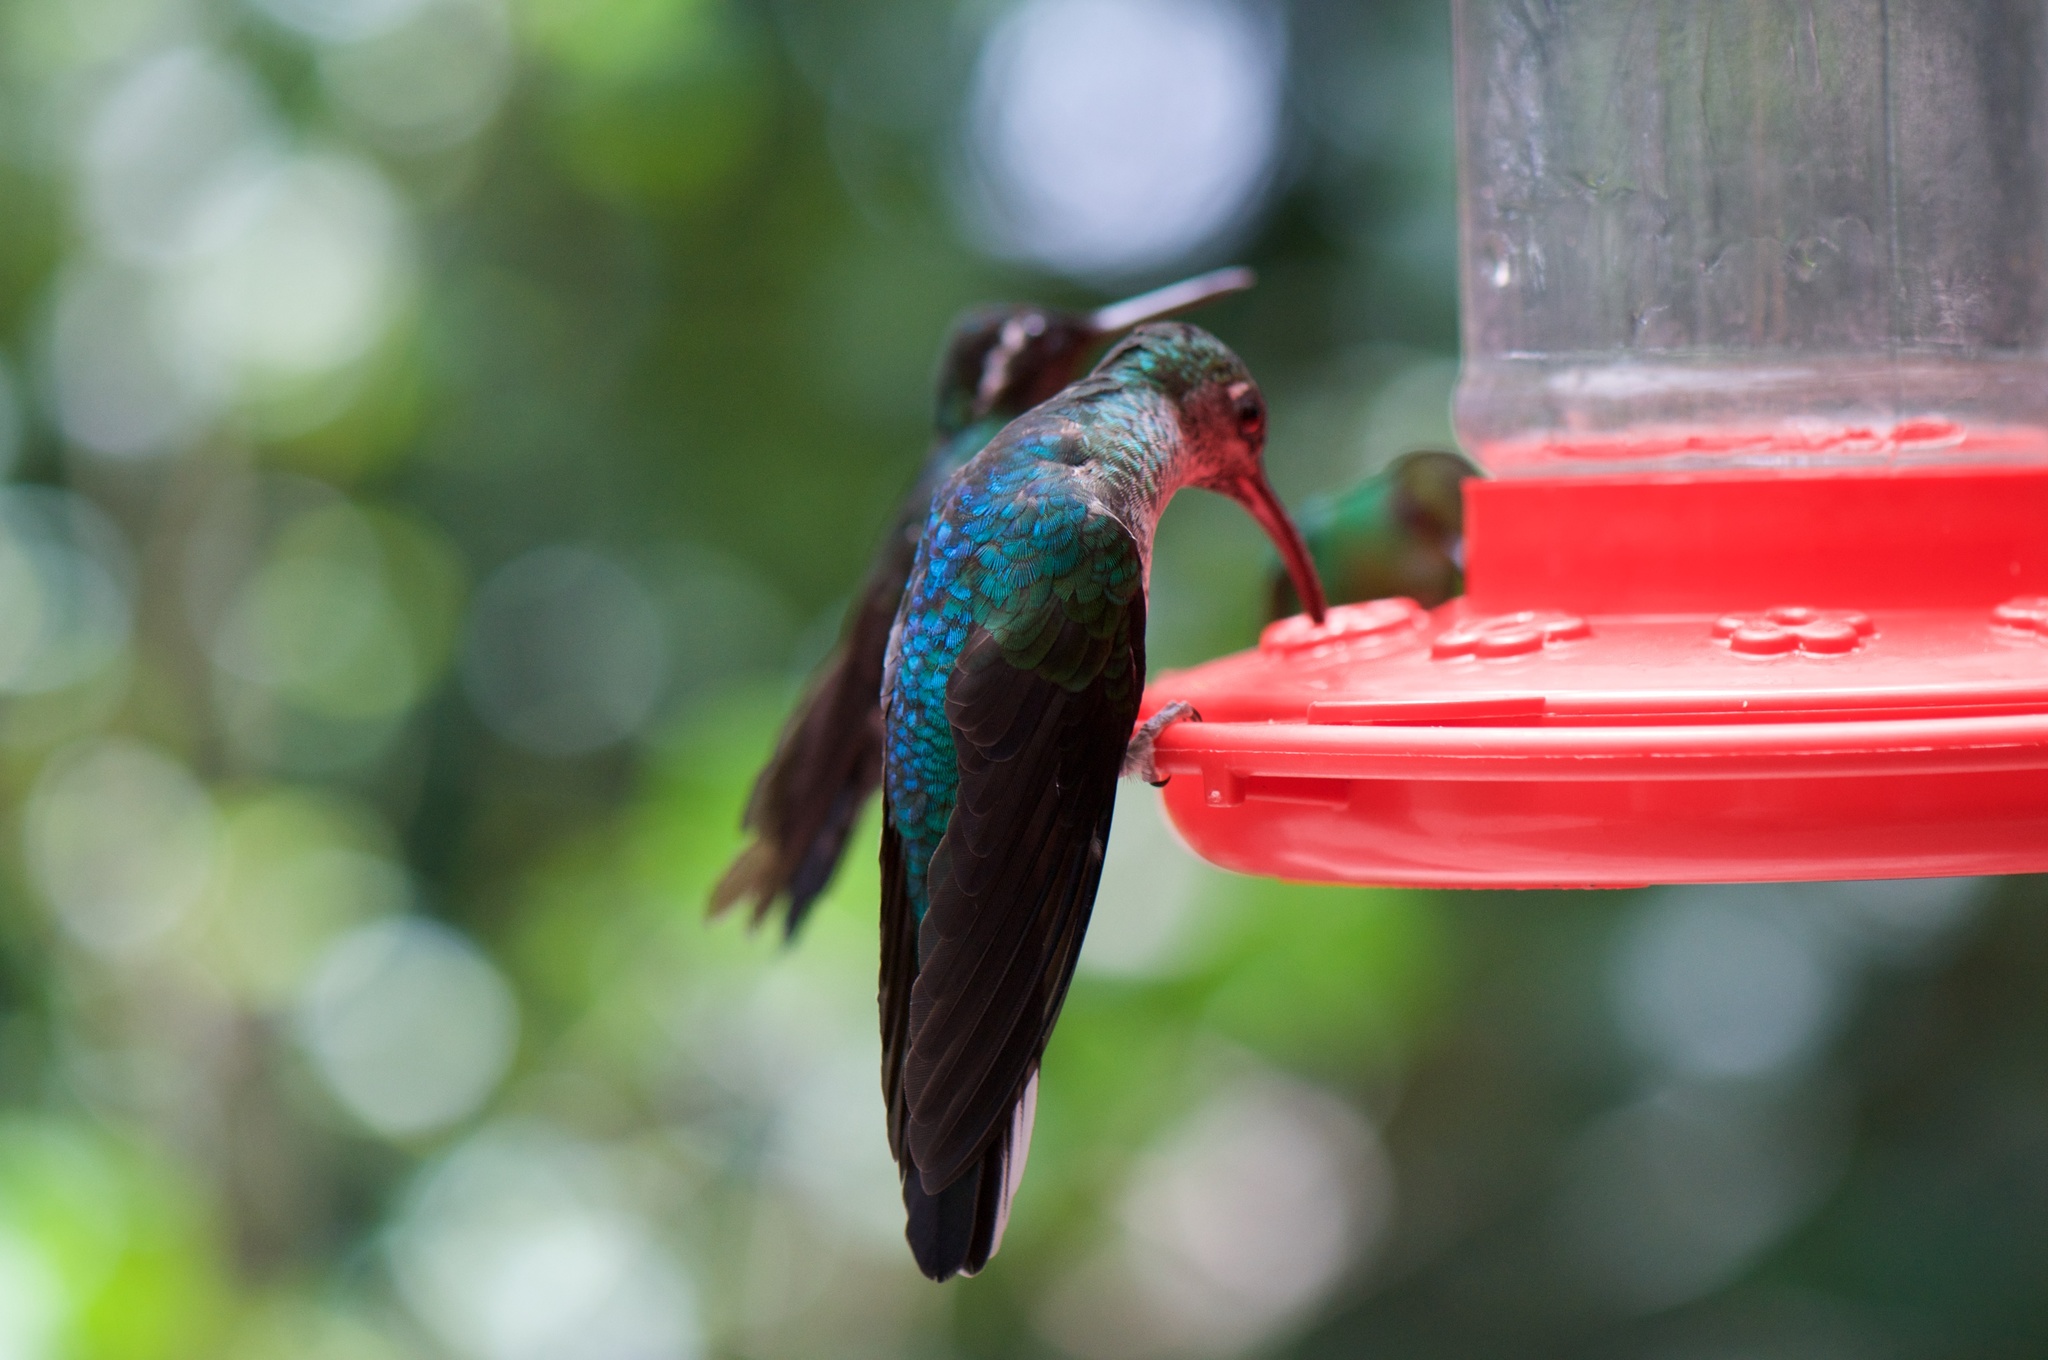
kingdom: Animalia
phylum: Chordata
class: Aves
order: Apodiformes
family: Trochilidae
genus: Campylopterus
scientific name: Campylopterus hemileucurus
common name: Violet sabrewing
